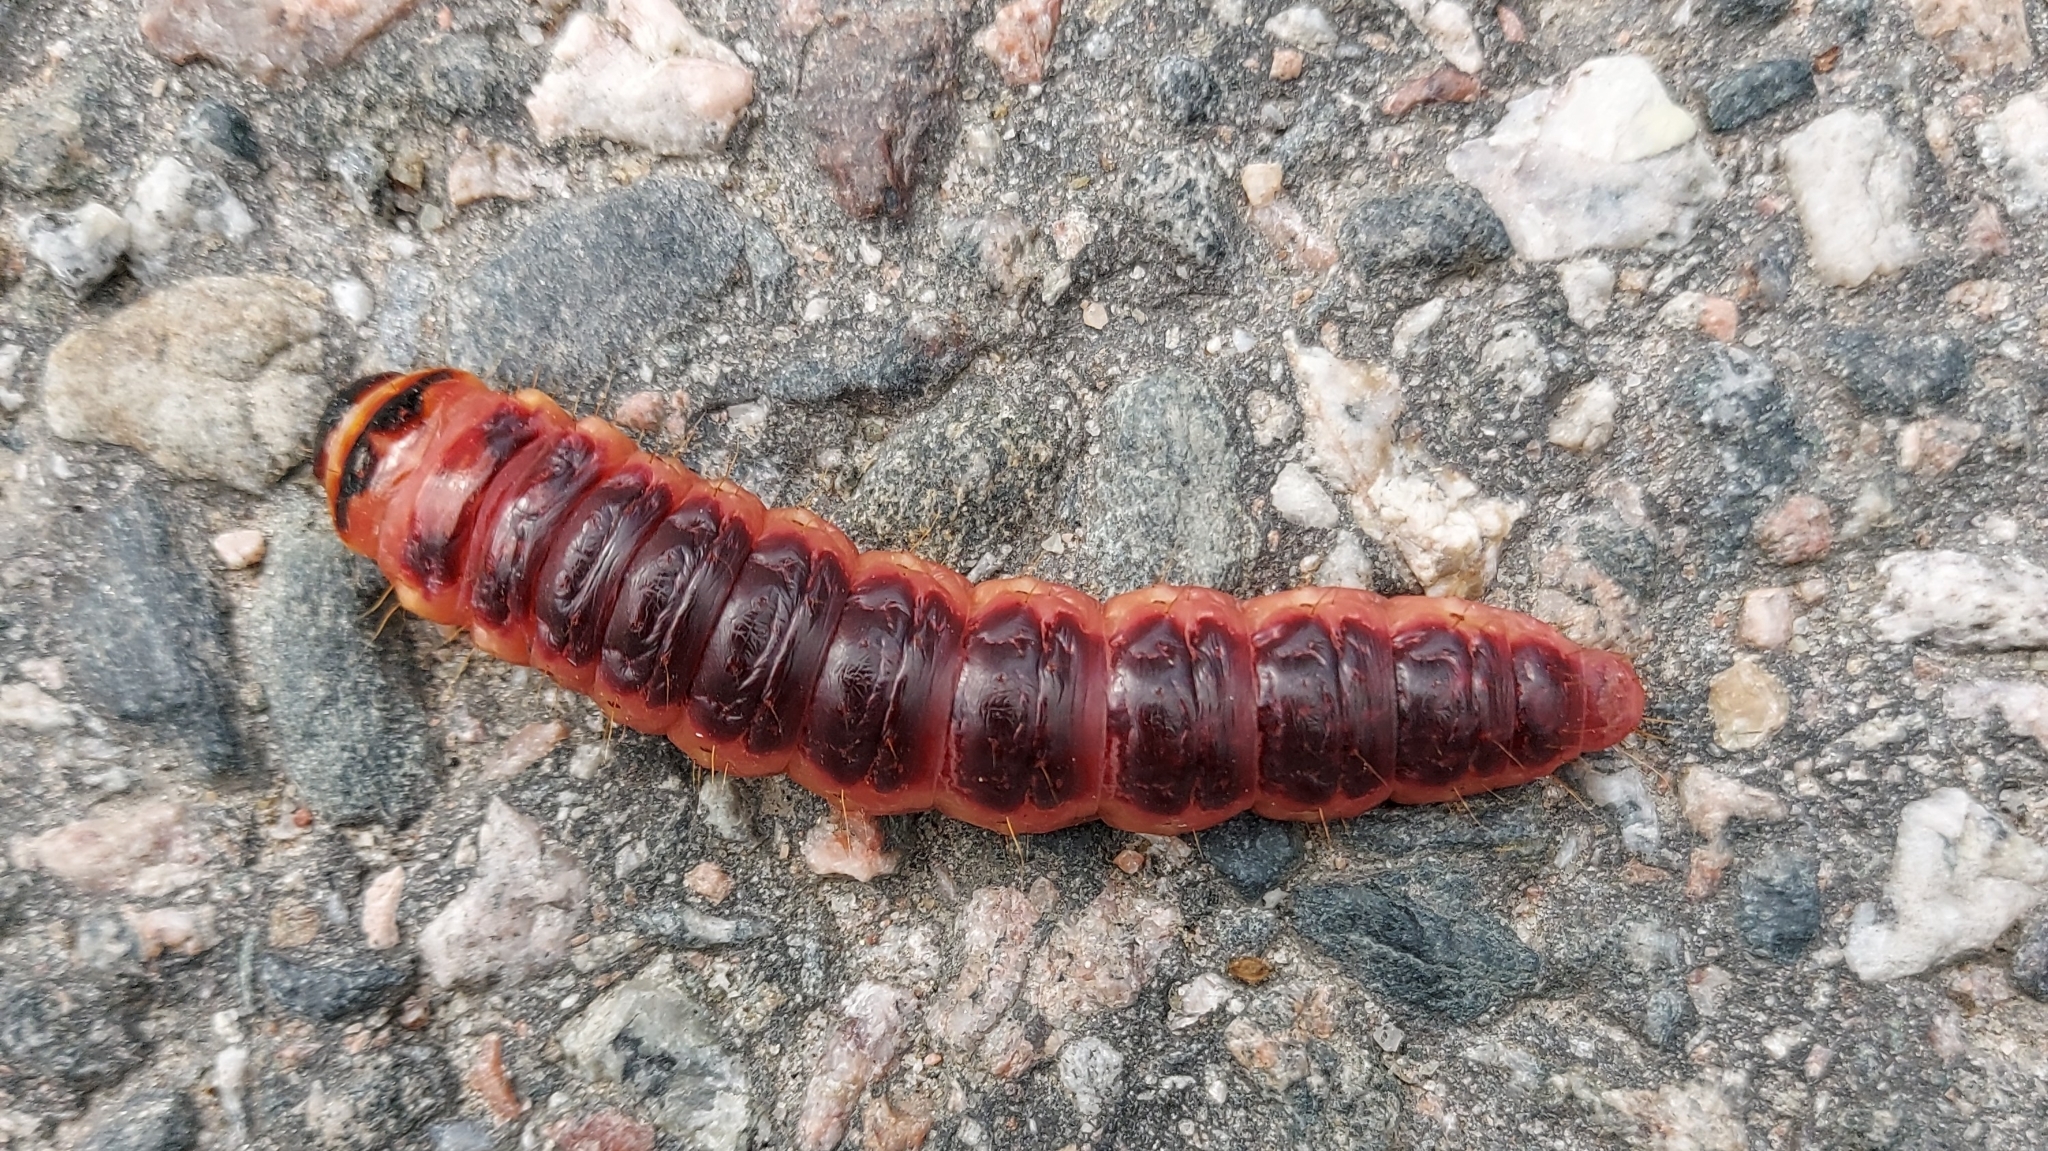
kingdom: Animalia
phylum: Arthropoda
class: Insecta
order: Lepidoptera
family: Cossidae
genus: Cossus
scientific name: Cossus cossus
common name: Goat moth
